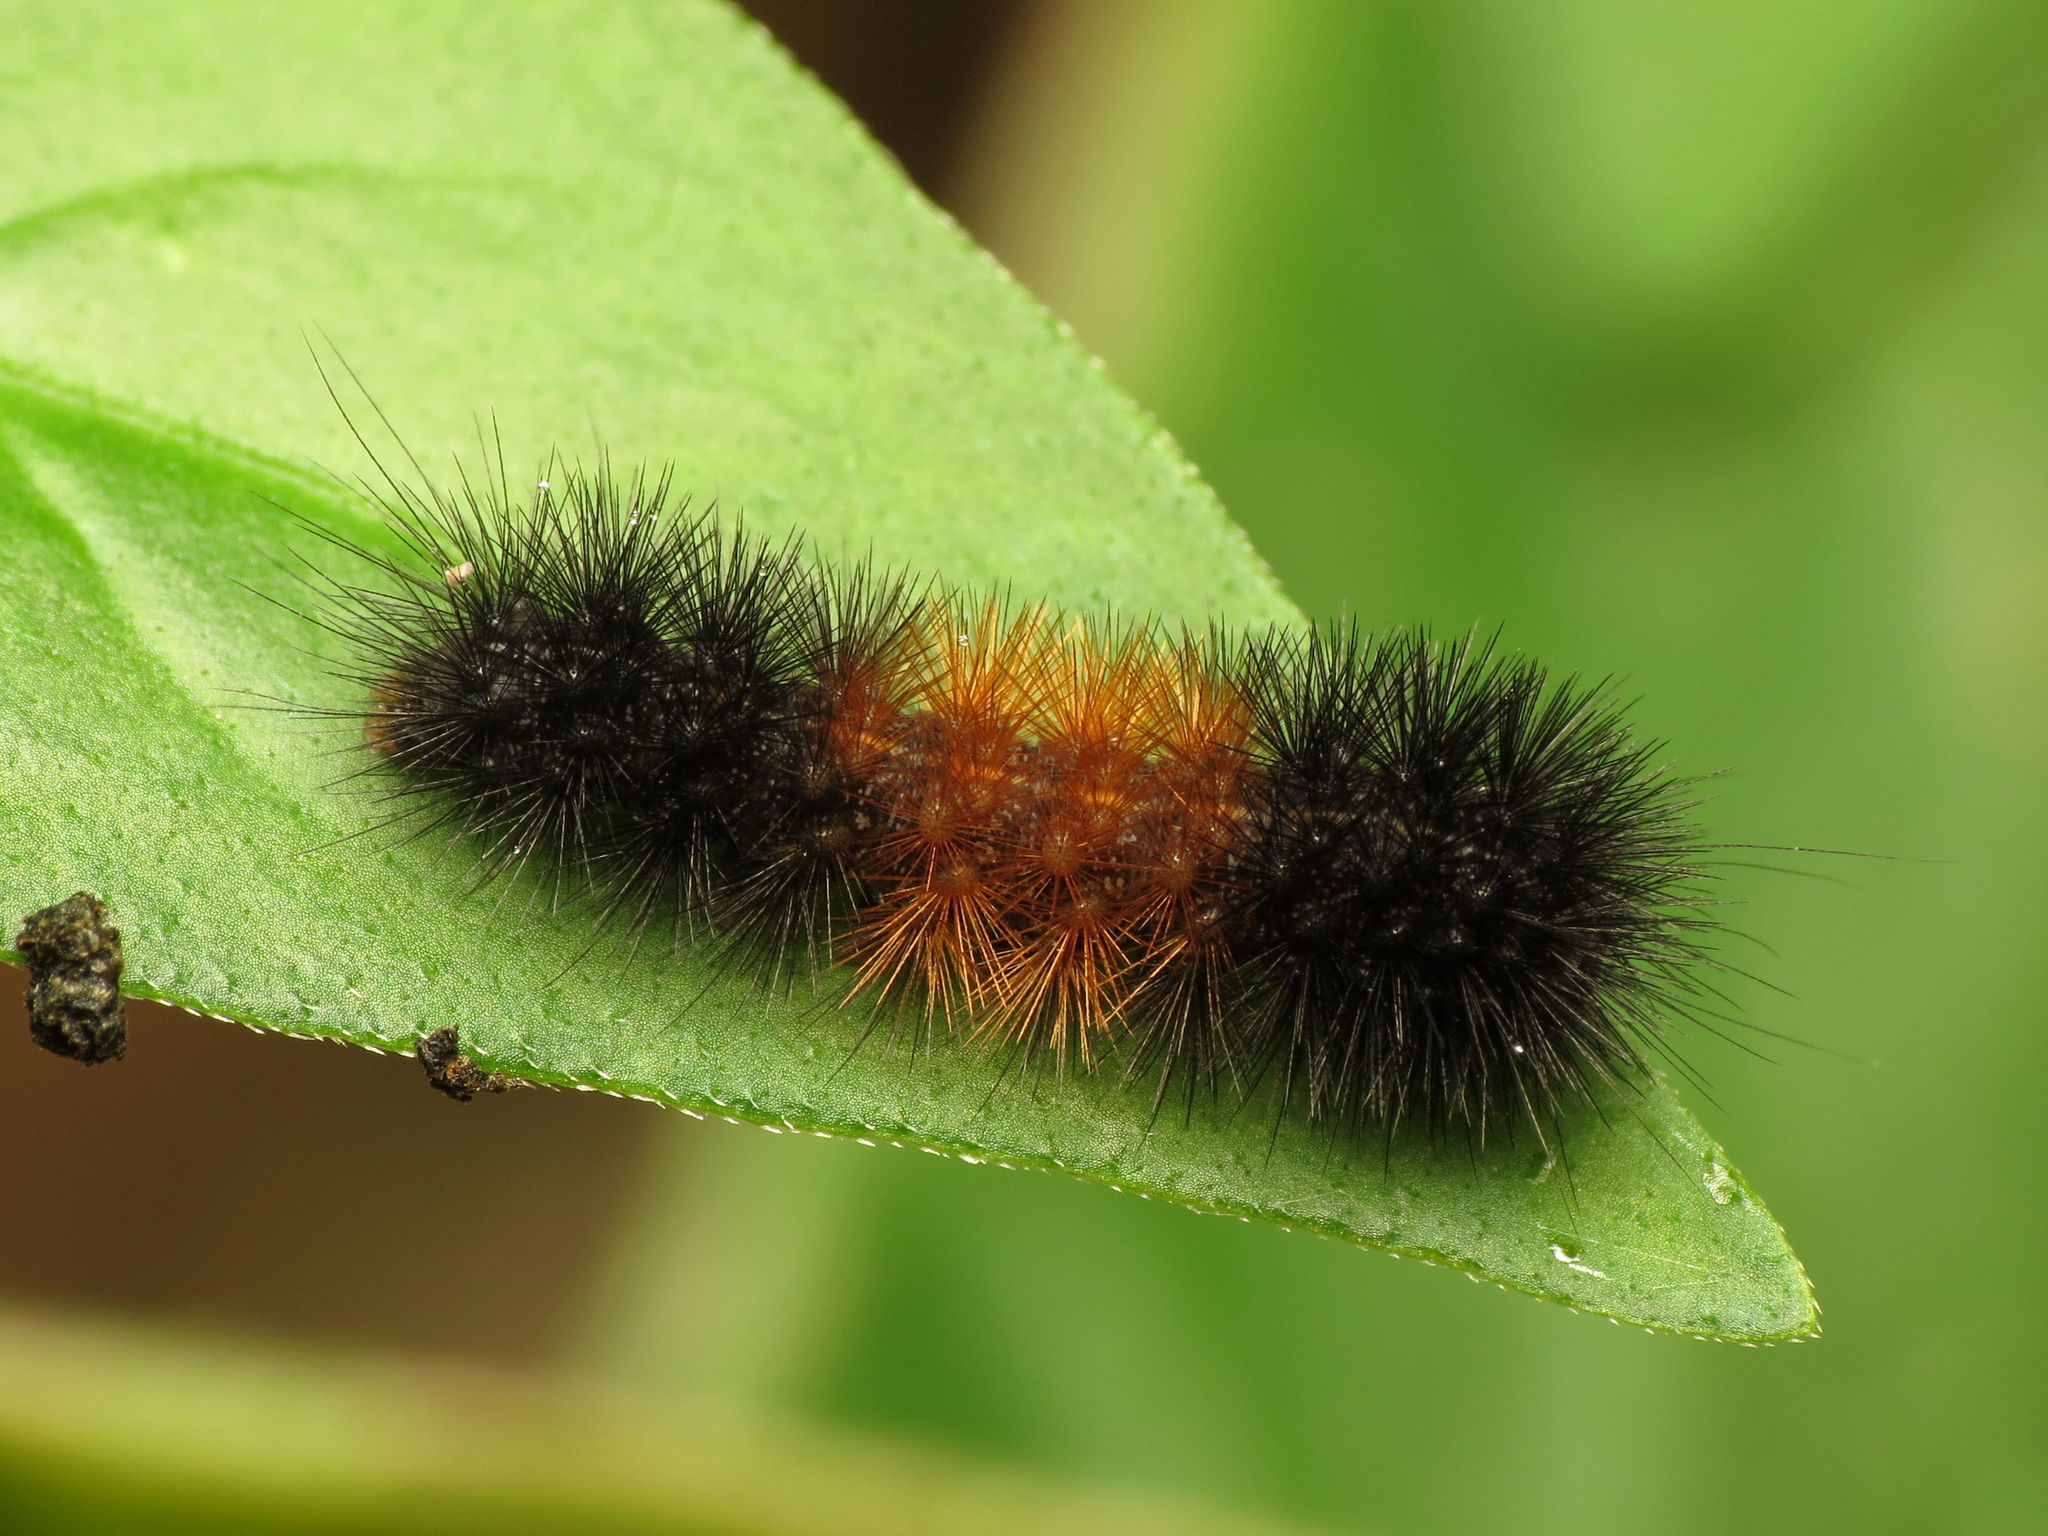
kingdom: Animalia
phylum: Arthropoda
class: Insecta
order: Lepidoptera
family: Erebidae
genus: Pyrrharctia
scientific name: Pyrrharctia isabella
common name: Isabella tiger moth
